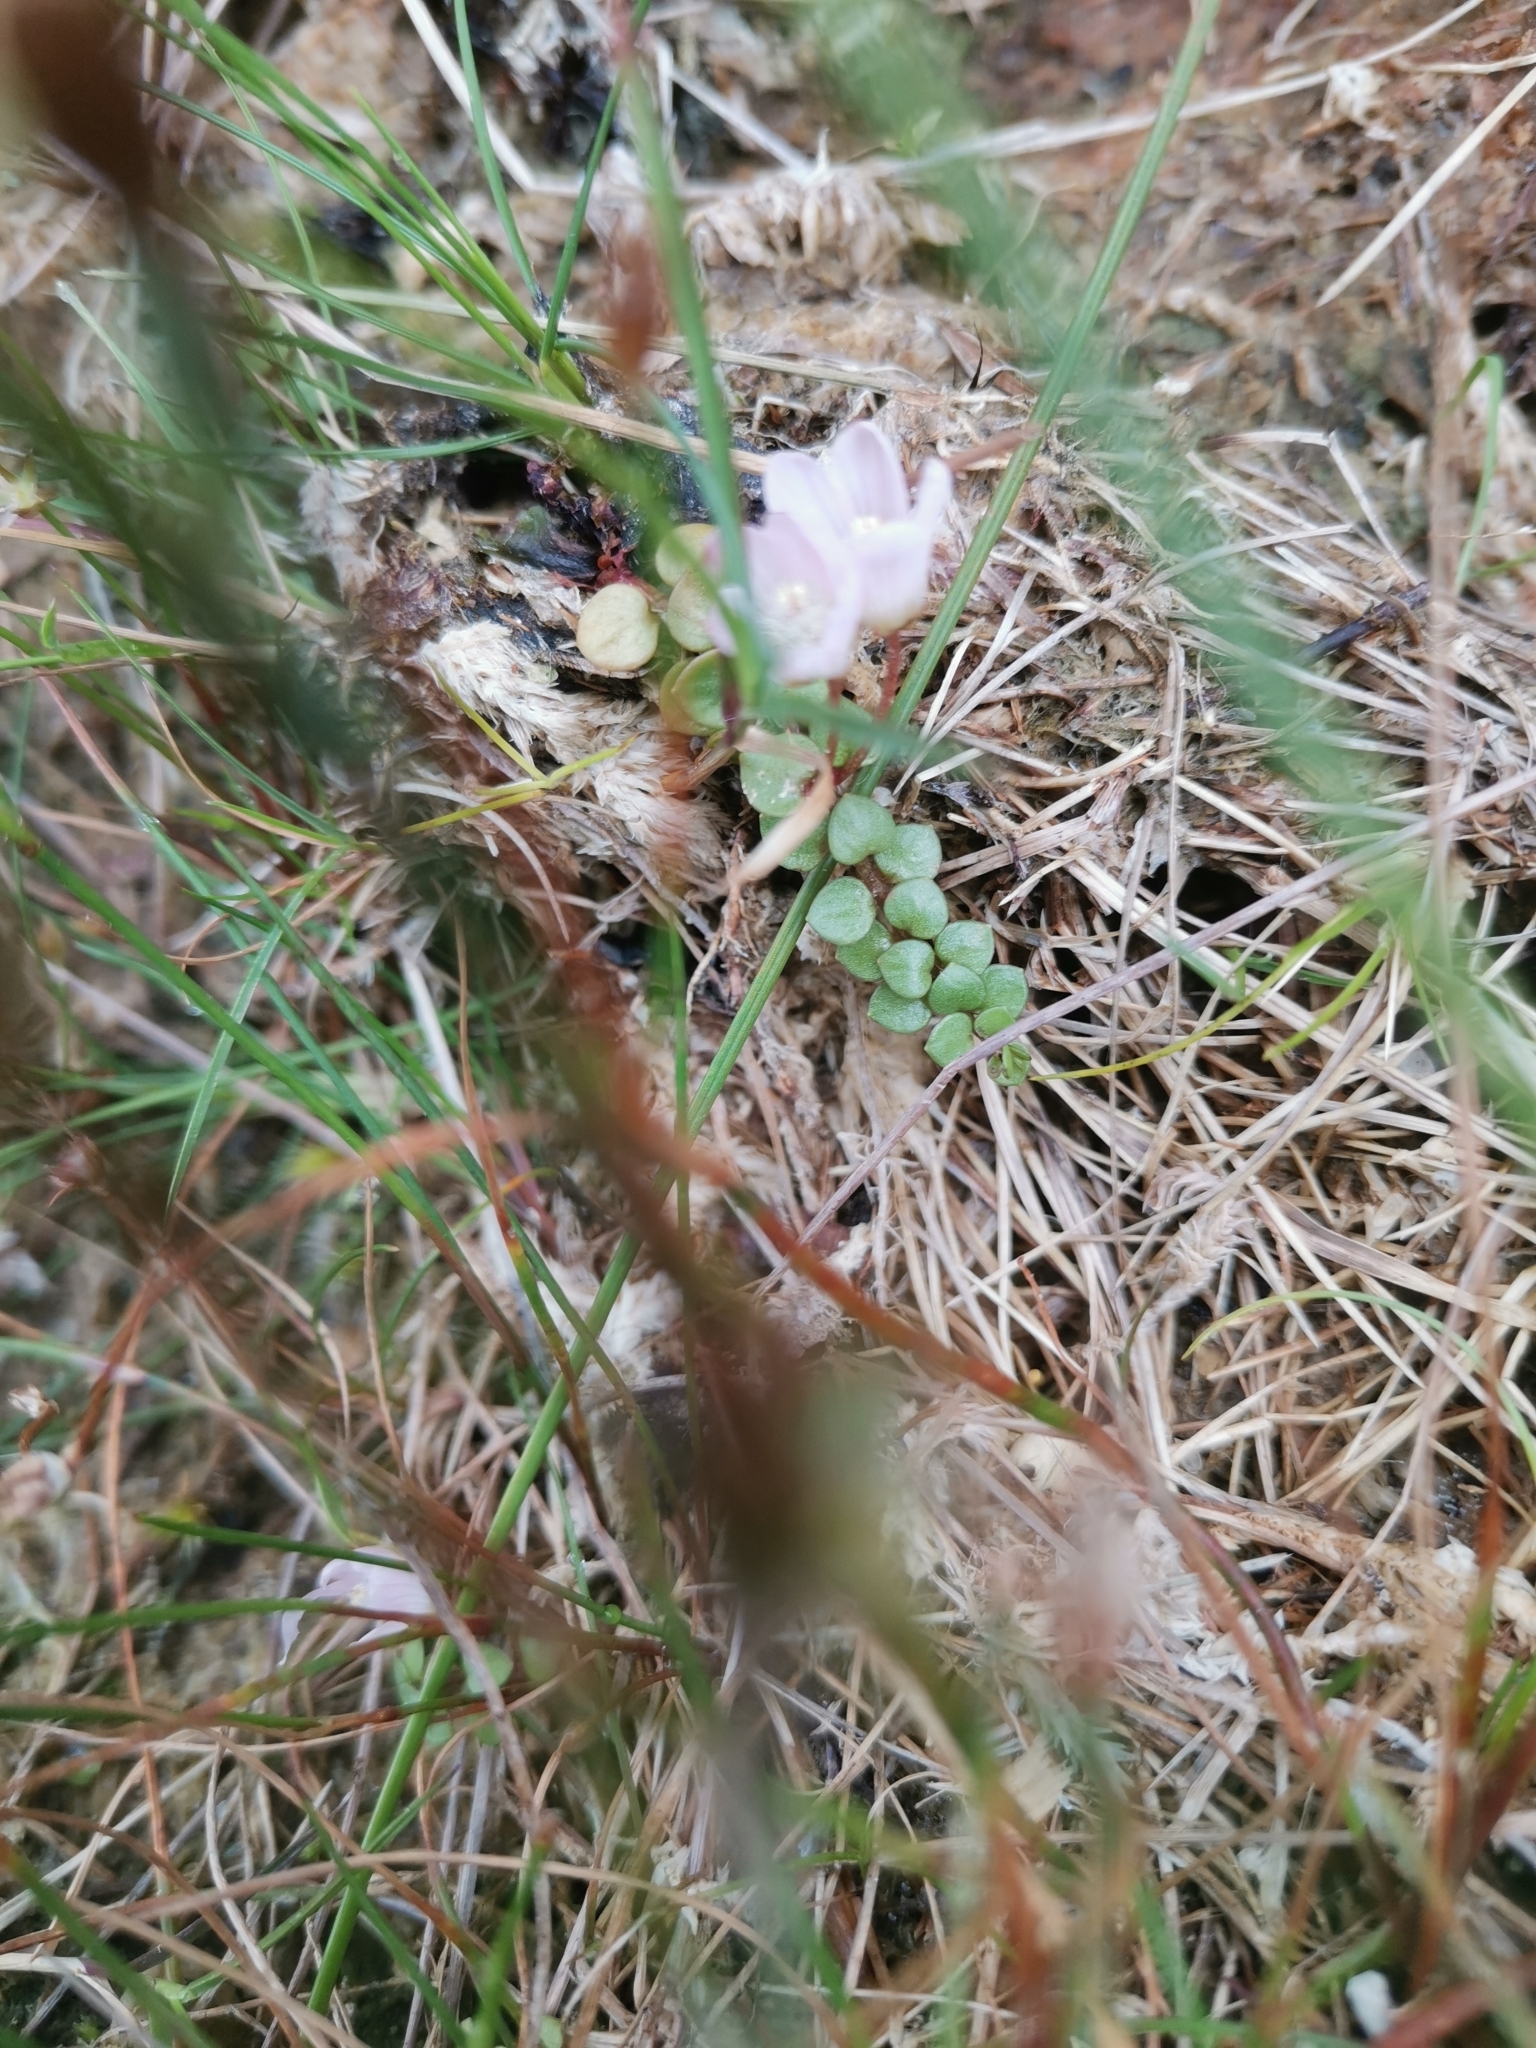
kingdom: Plantae
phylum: Tracheophyta
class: Magnoliopsida
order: Ericales
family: Primulaceae
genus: Lysimachia
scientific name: Lysimachia tenella
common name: European bog pimpernel
